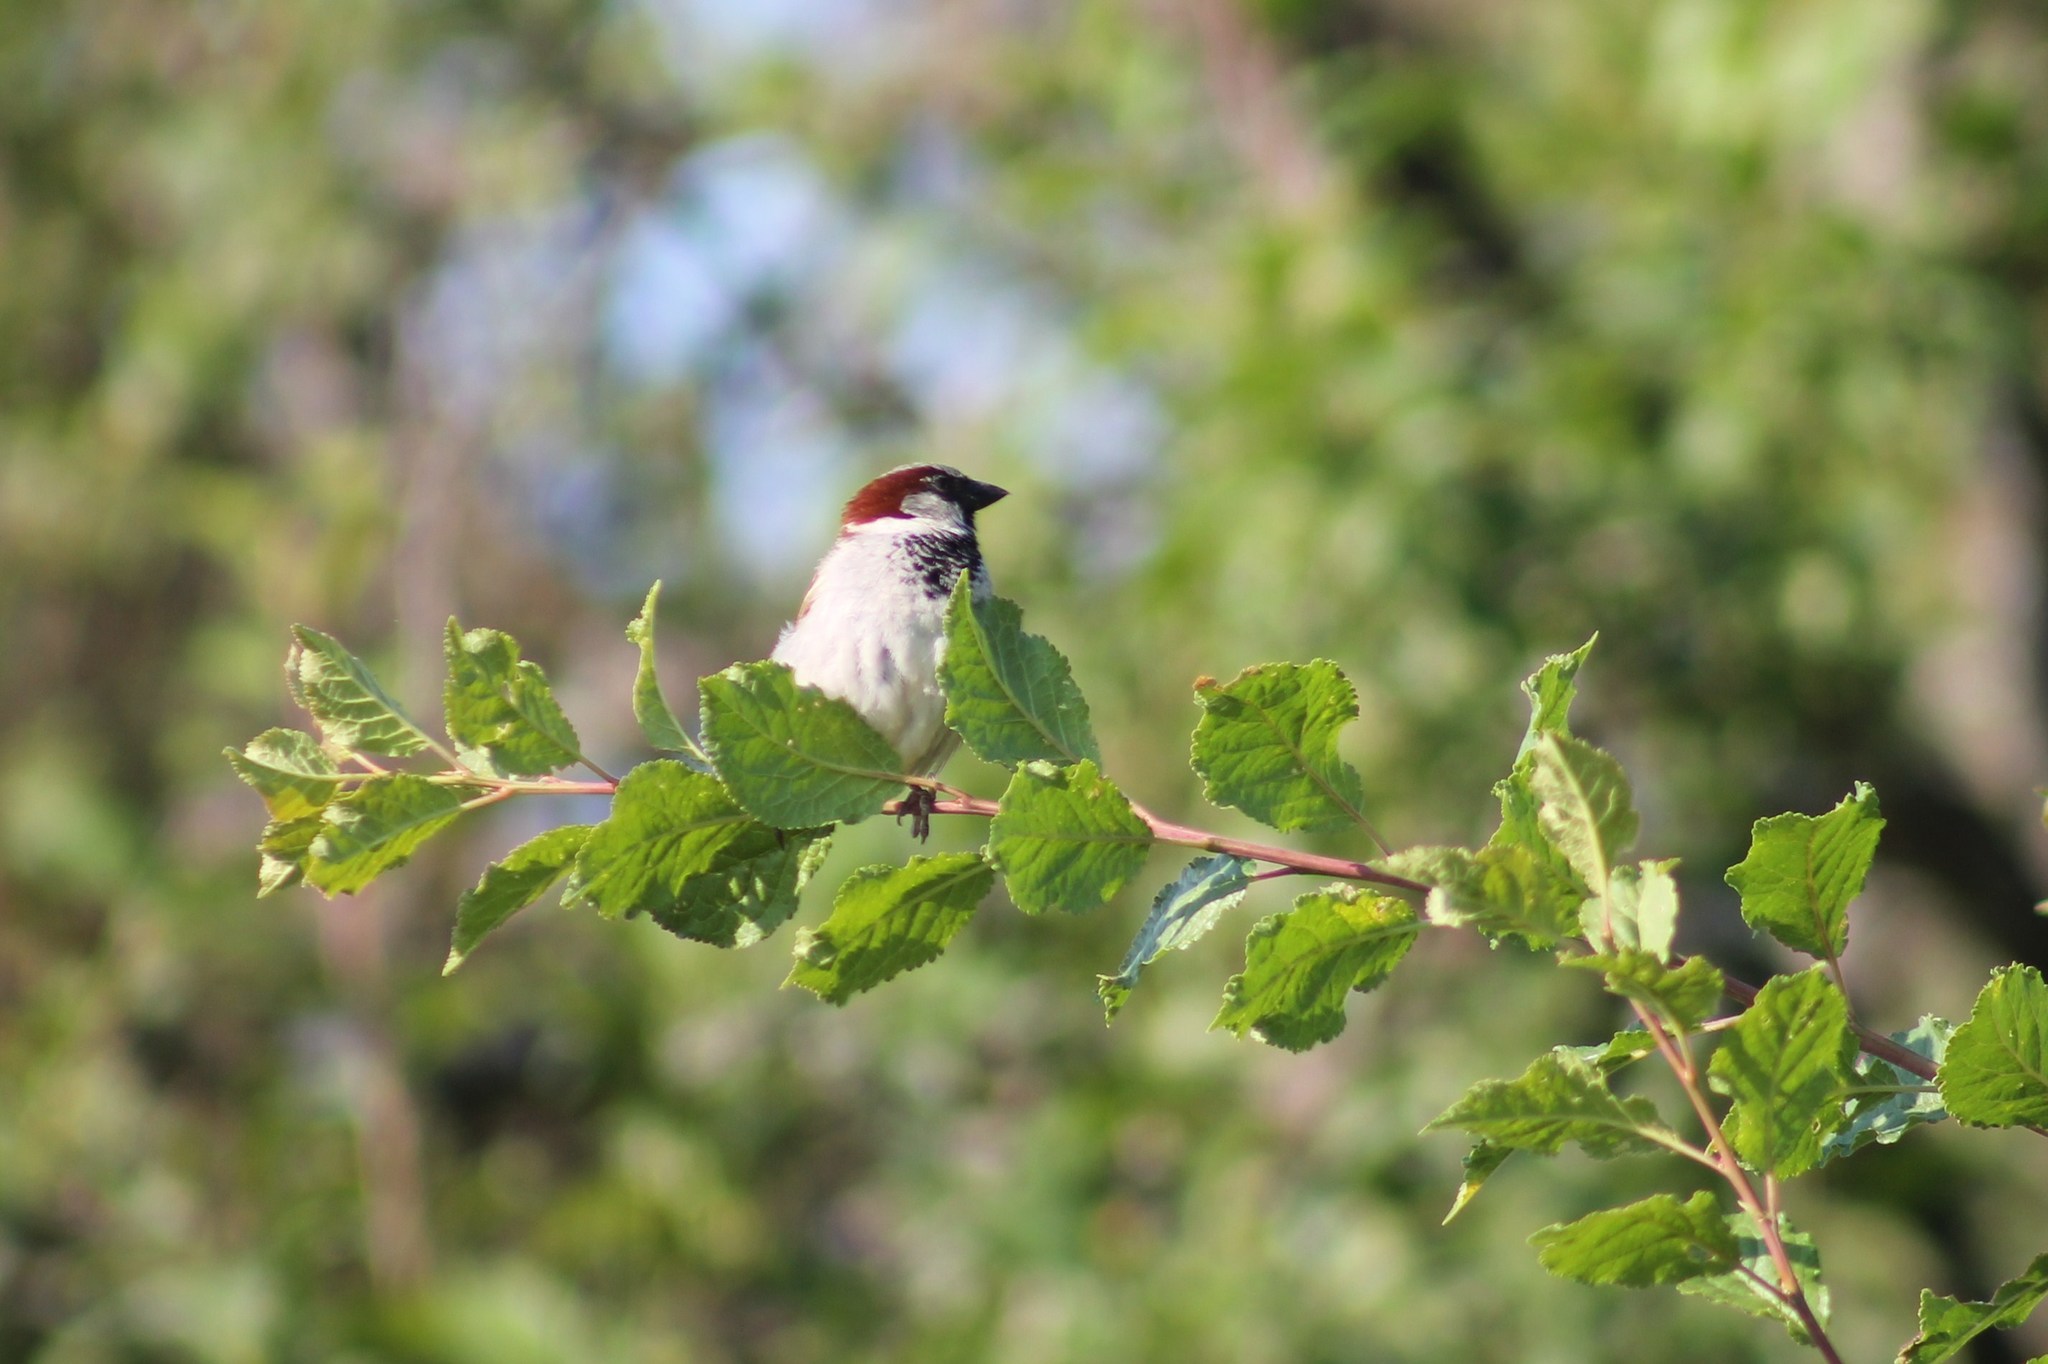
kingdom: Animalia
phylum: Chordata
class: Aves
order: Passeriformes
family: Passeridae
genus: Passer
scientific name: Passer domesticus
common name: House sparrow
